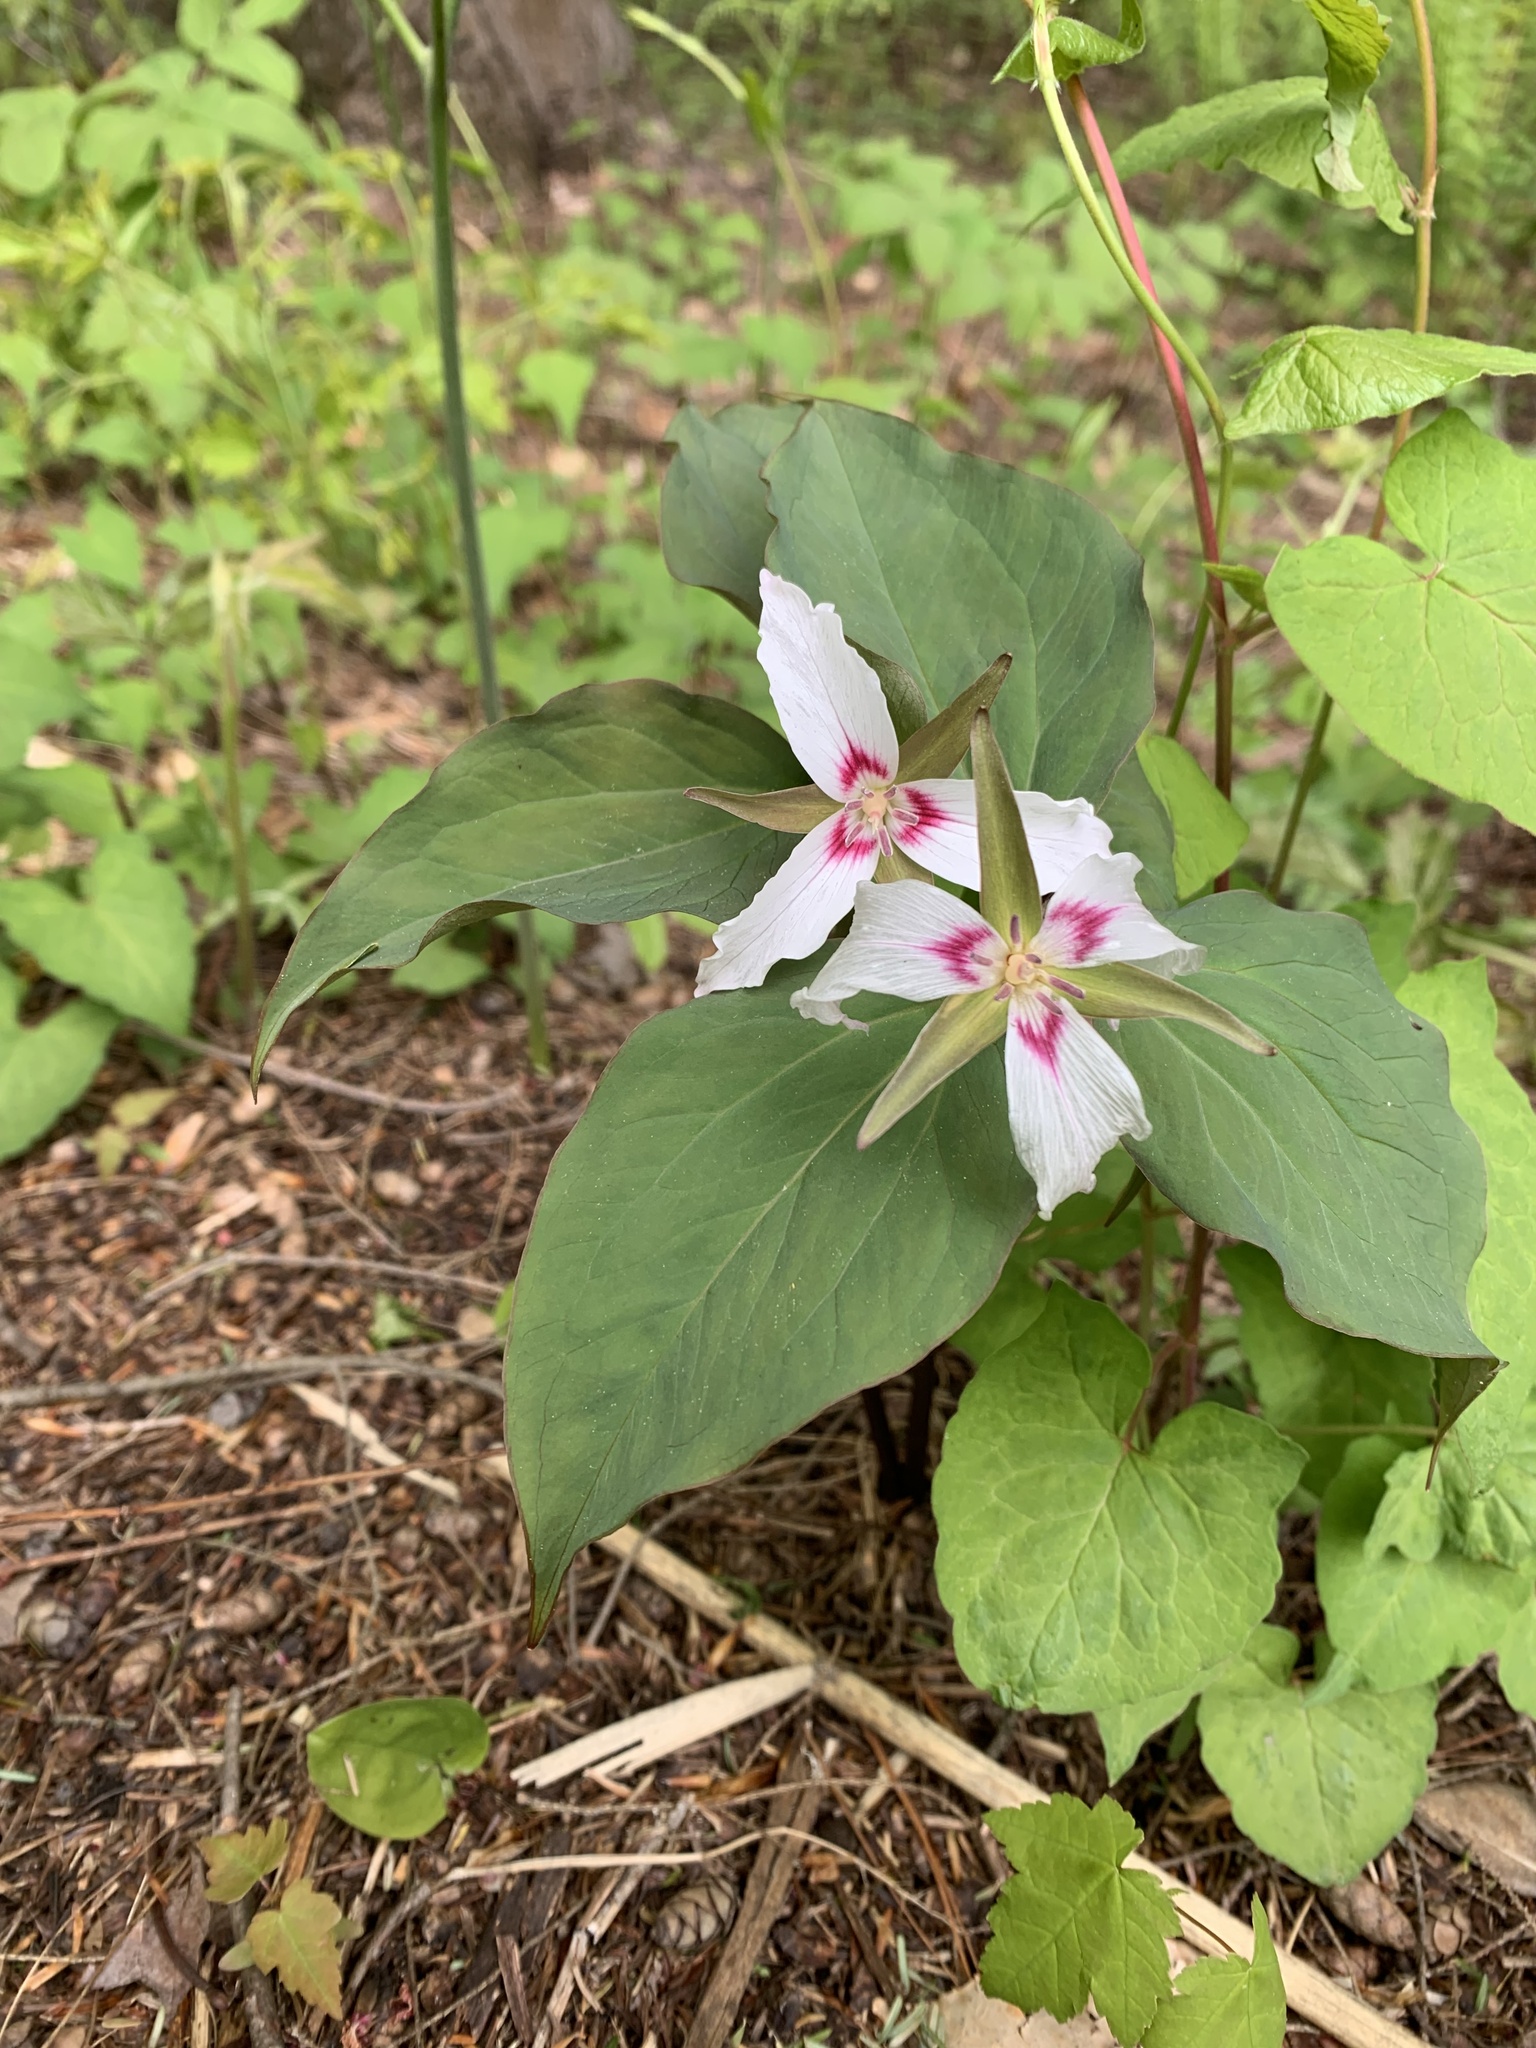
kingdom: Plantae
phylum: Tracheophyta
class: Liliopsida
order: Liliales
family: Melanthiaceae
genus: Trillium
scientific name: Trillium undulatum
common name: Paint trillium
